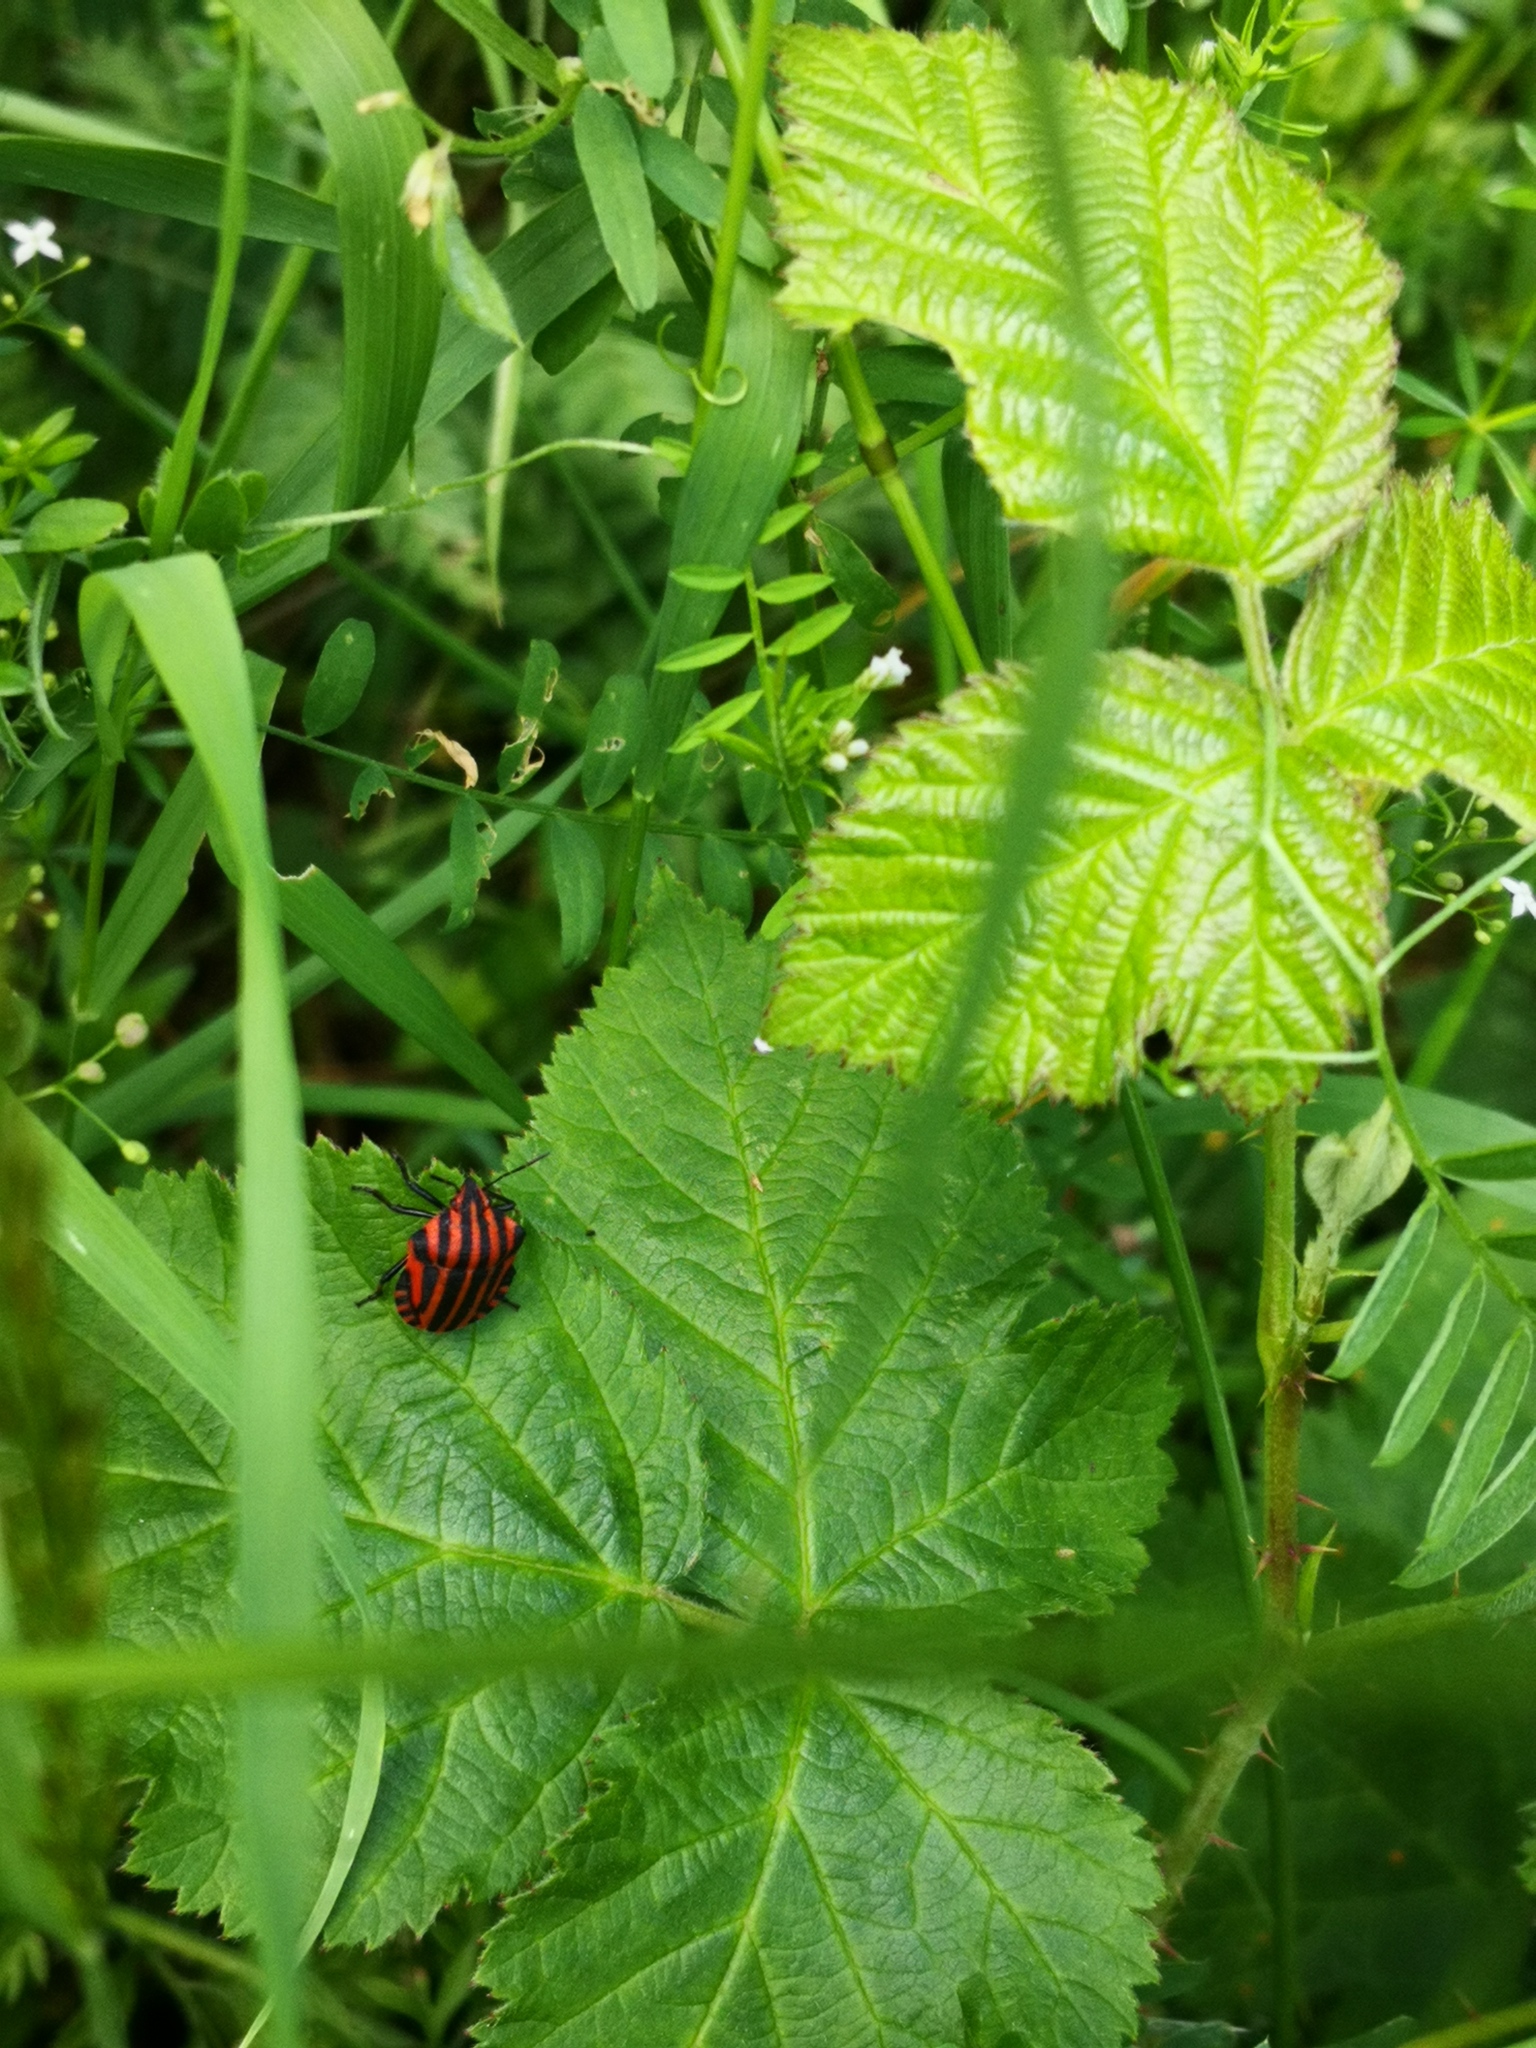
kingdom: Animalia
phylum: Arthropoda
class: Insecta
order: Hemiptera
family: Pentatomidae
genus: Graphosoma
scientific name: Graphosoma italicum
